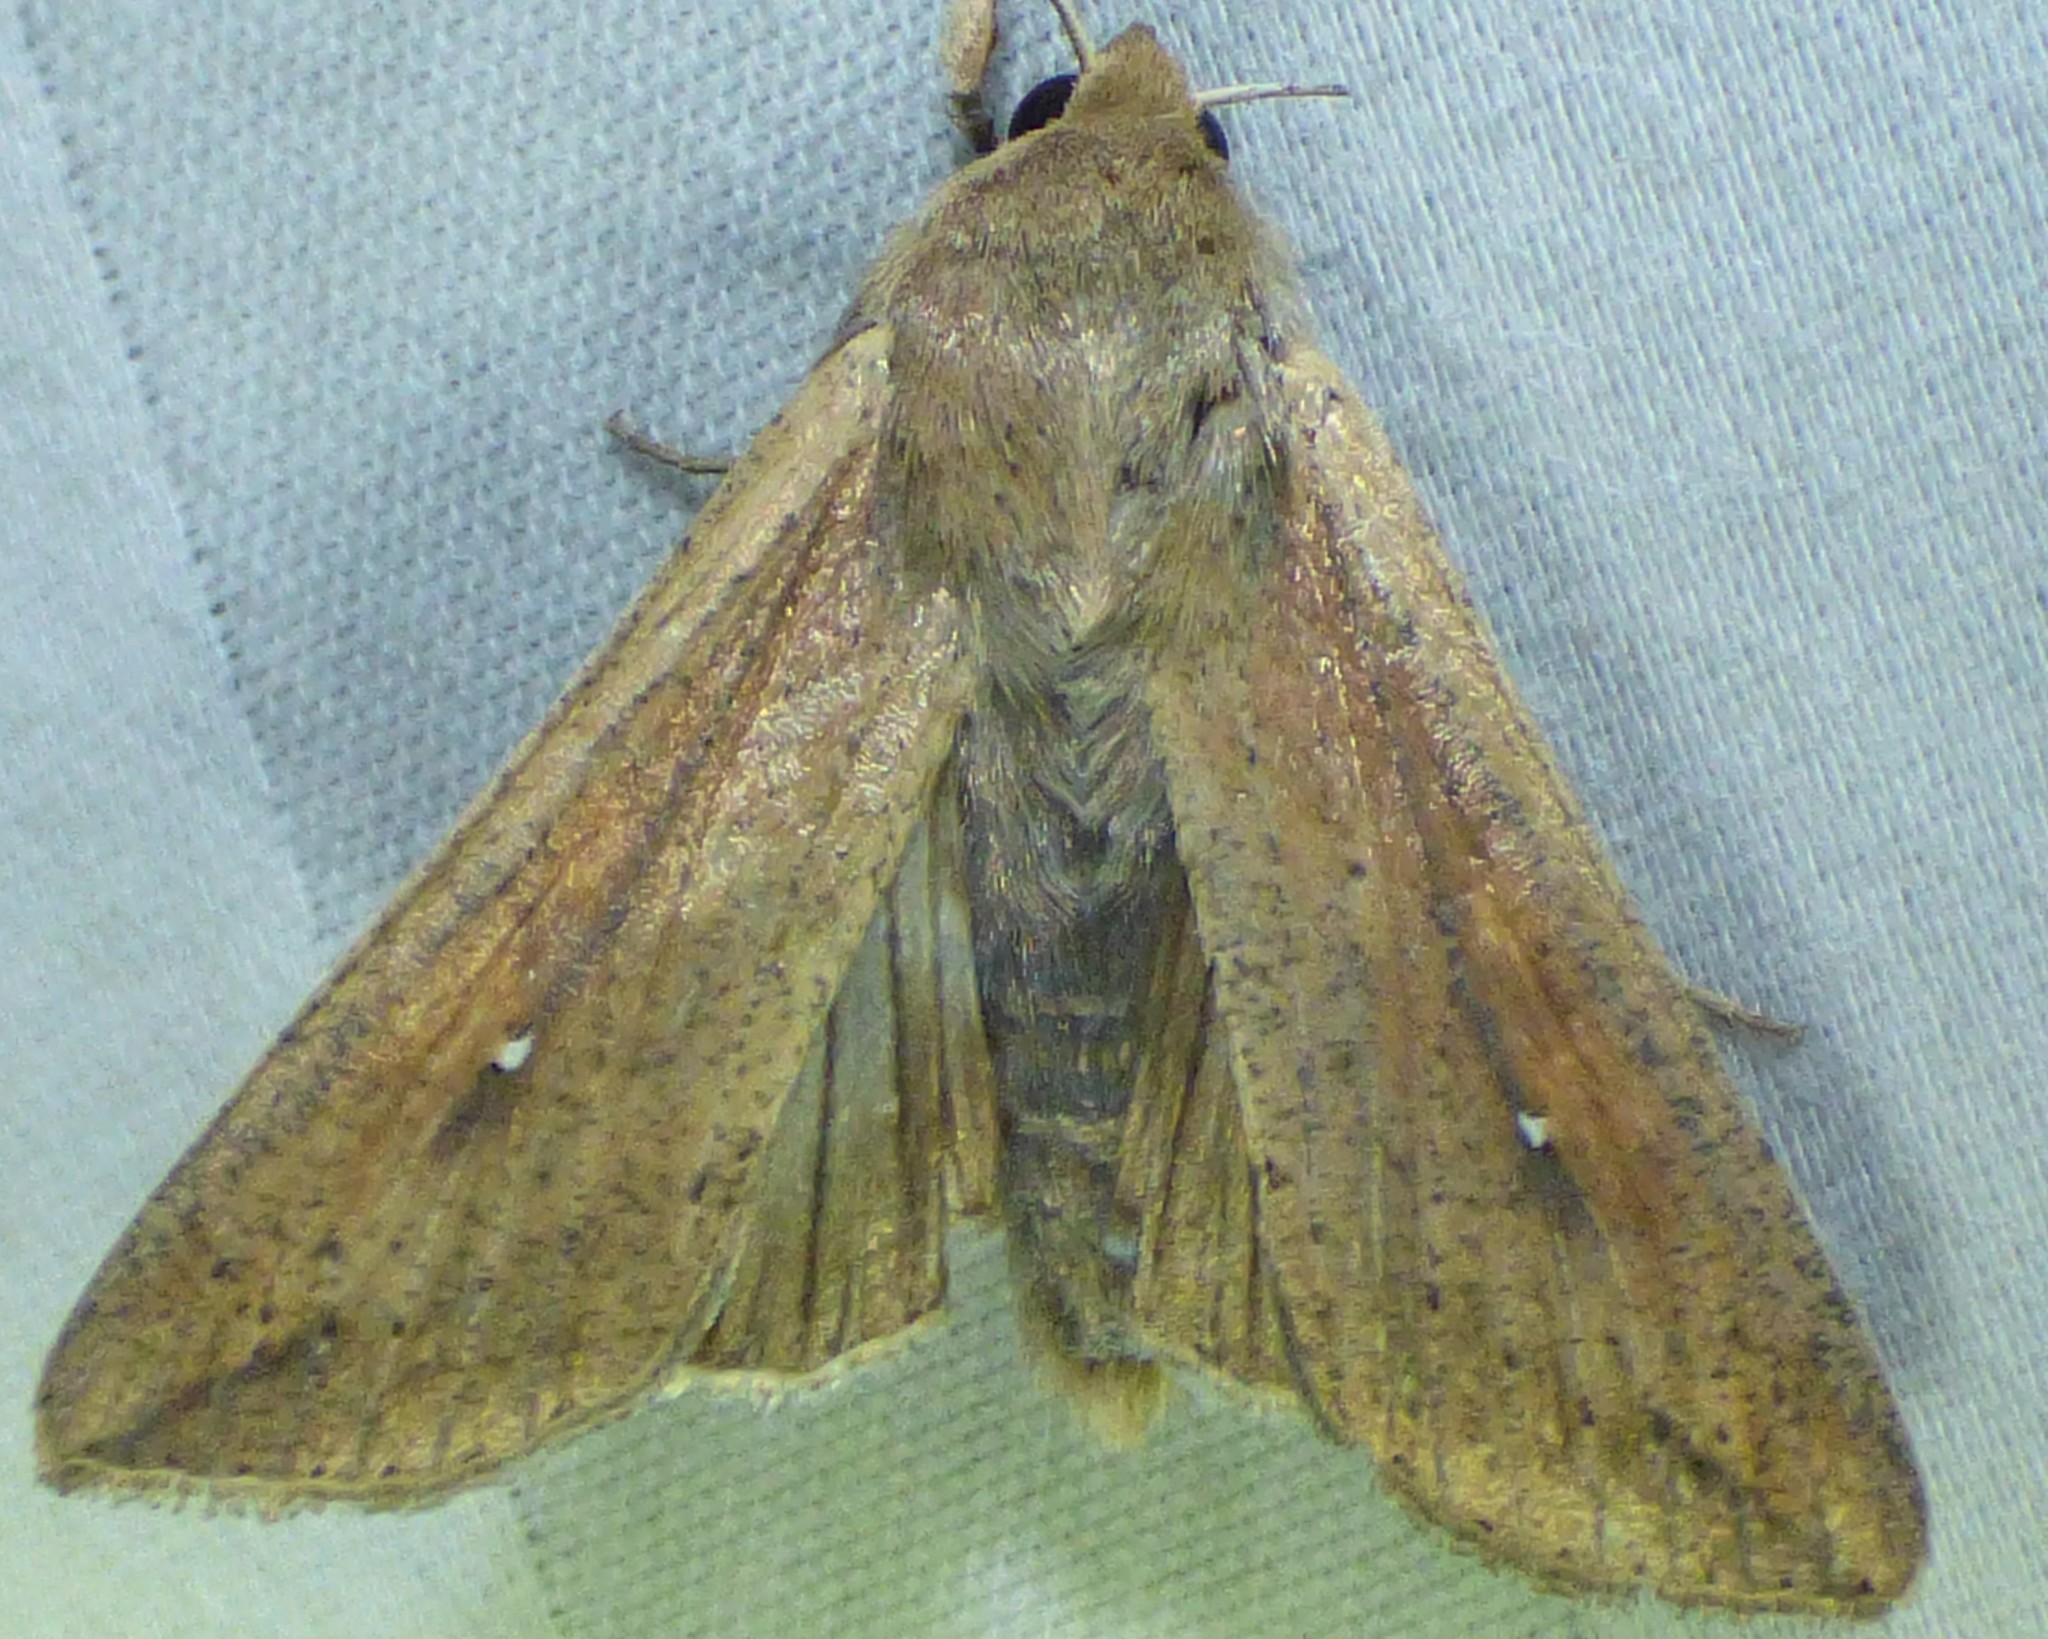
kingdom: Animalia
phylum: Arthropoda
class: Insecta
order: Lepidoptera
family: Noctuidae
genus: Mythimna
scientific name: Mythimna unipuncta
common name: White-speck
